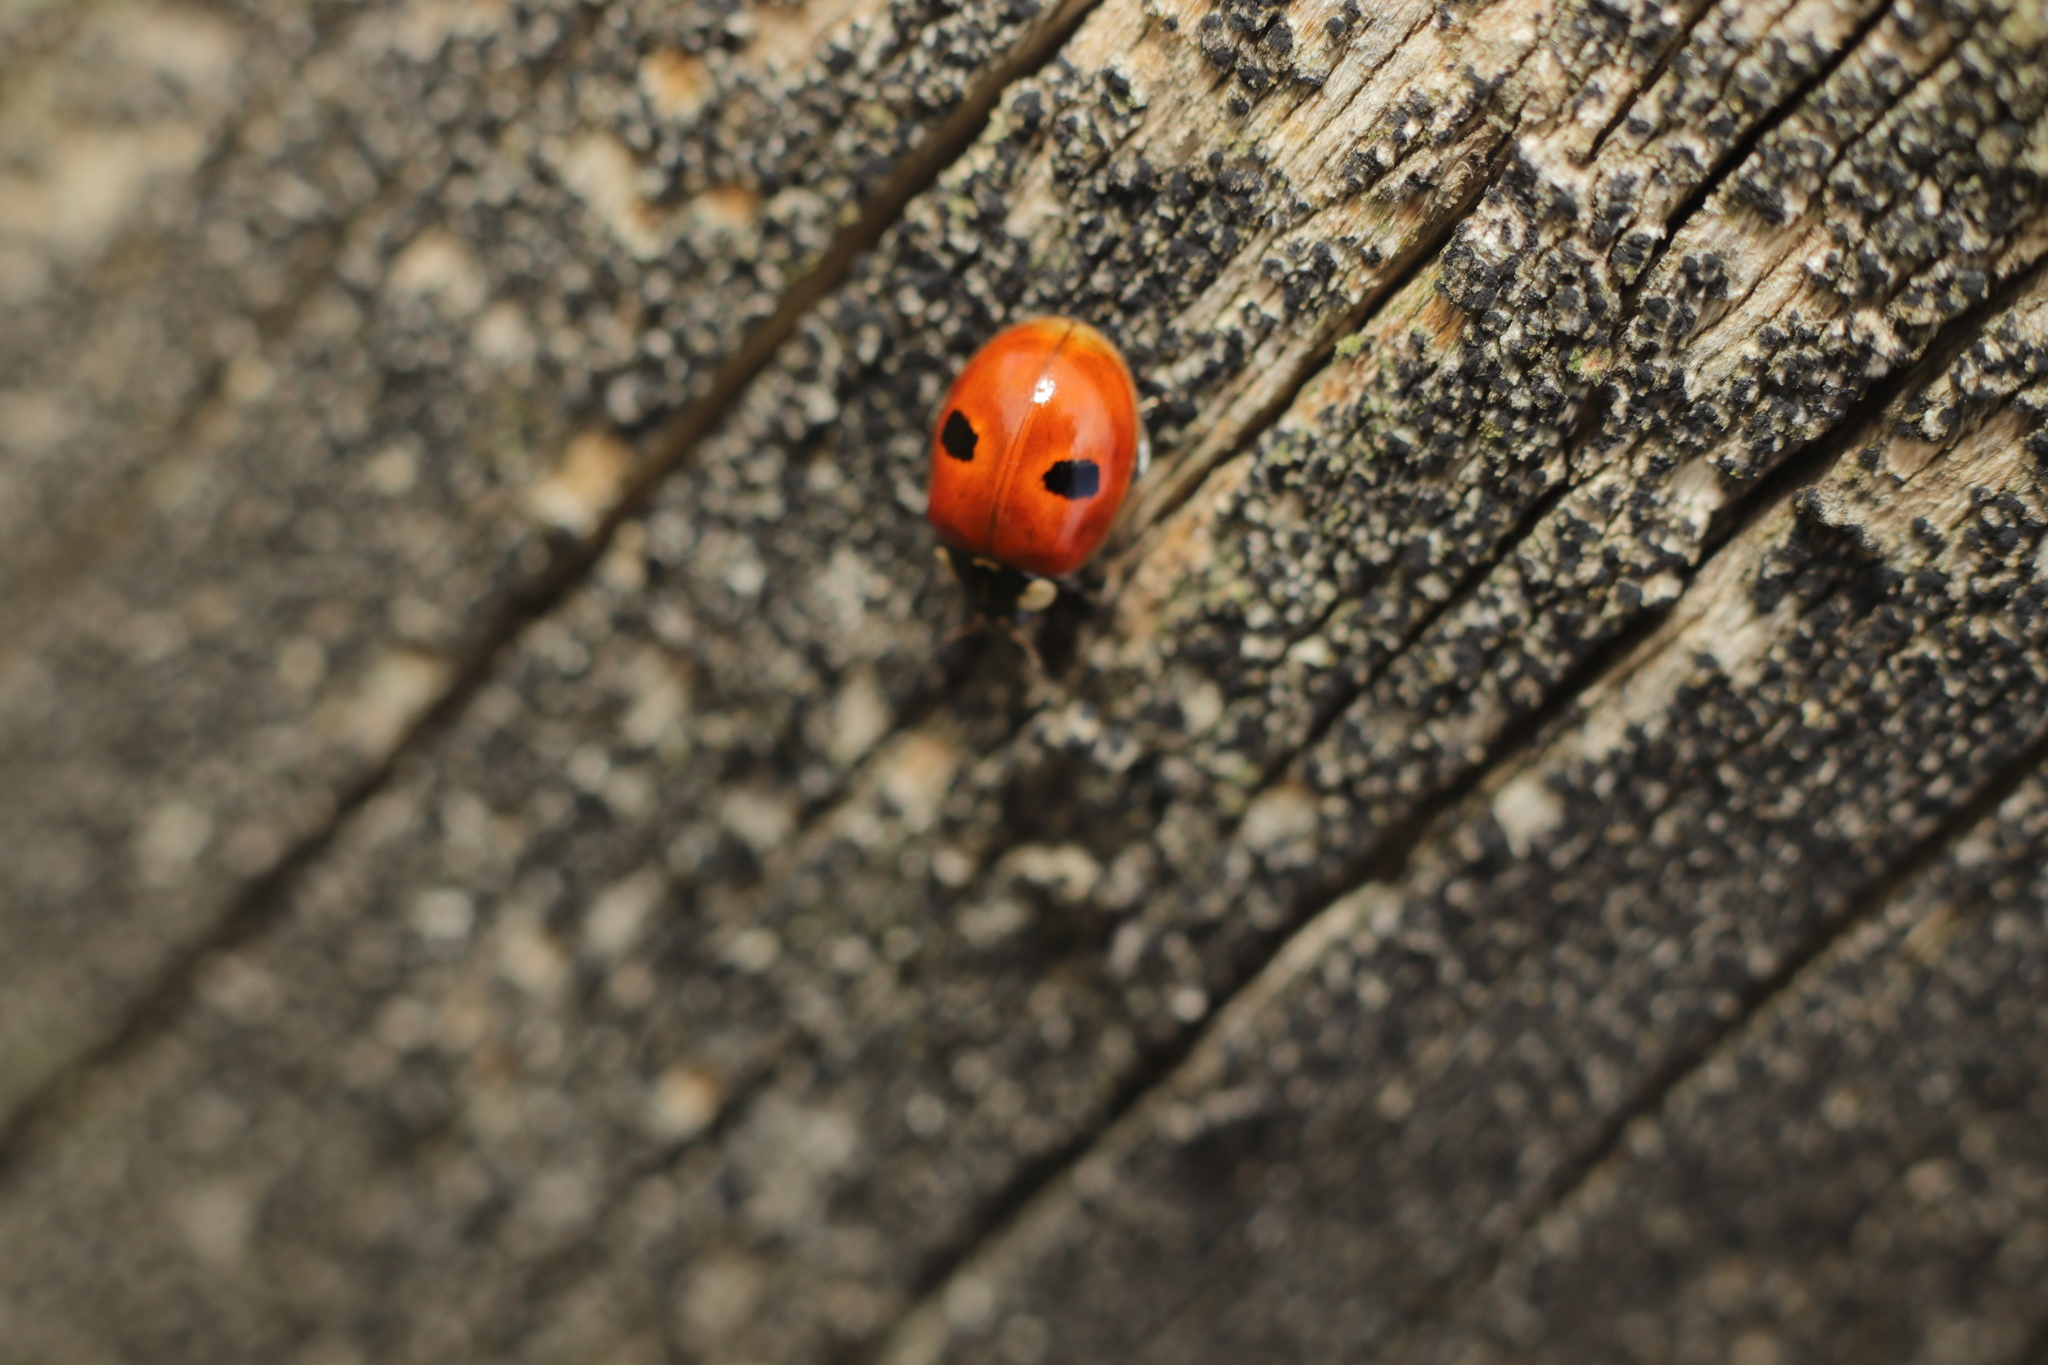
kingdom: Animalia
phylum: Arthropoda
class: Insecta
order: Coleoptera
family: Coccinellidae
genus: Adalia
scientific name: Adalia bipunctata
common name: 2-spot ladybird
